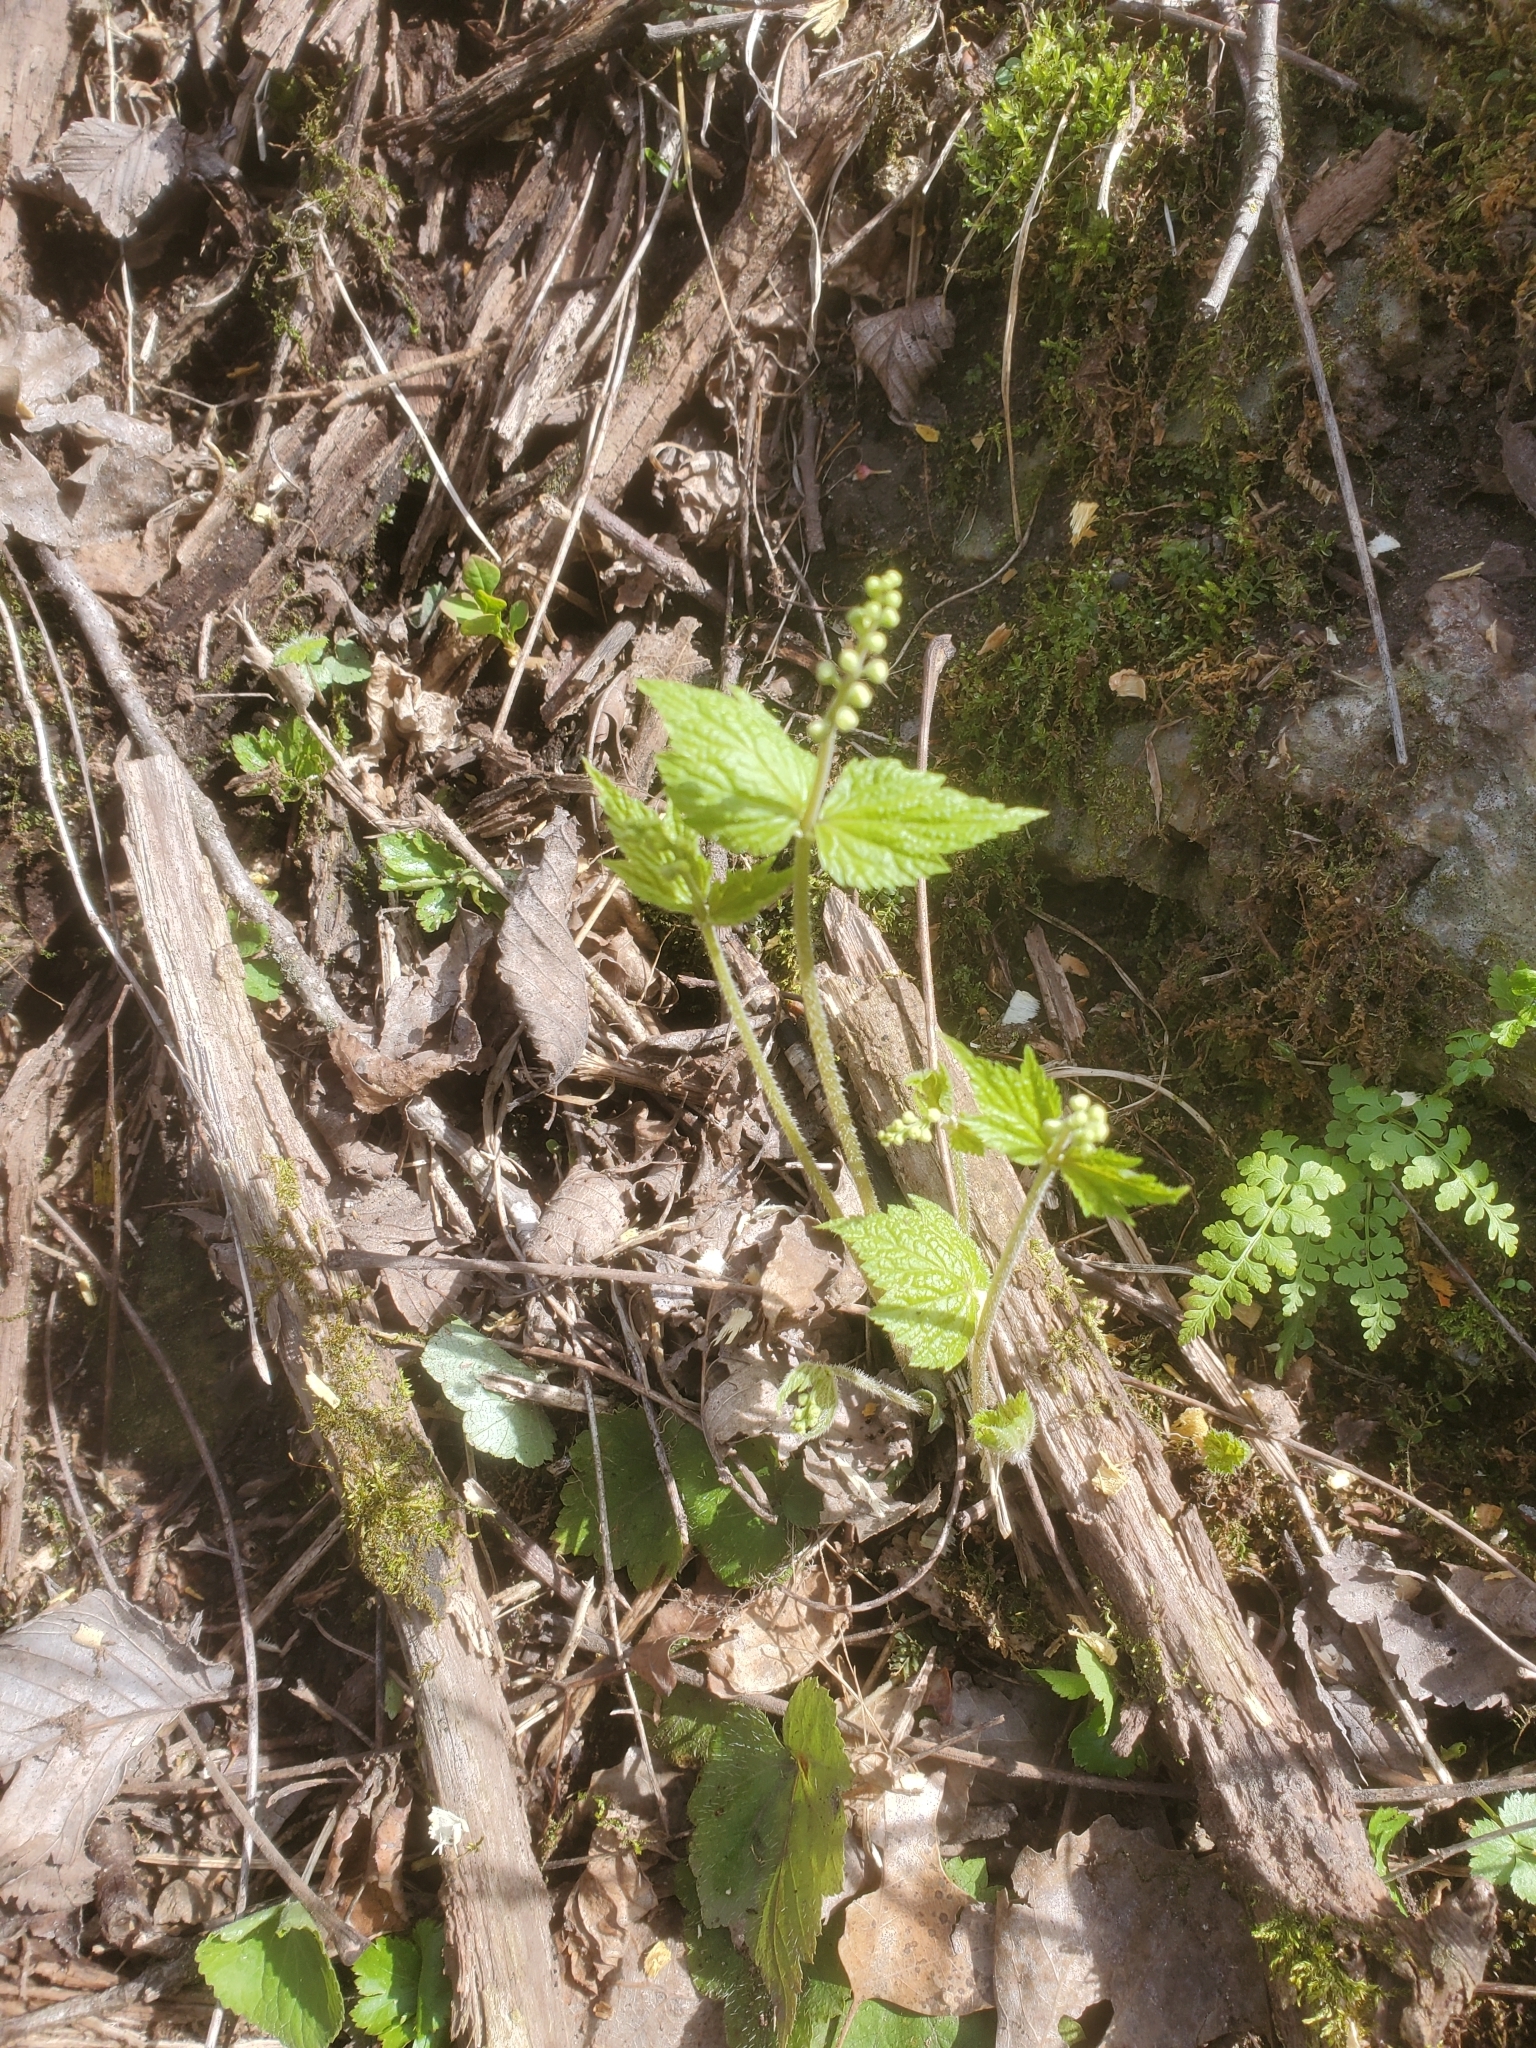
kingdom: Plantae
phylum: Tracheophyta
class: Magnoliopsida
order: Saxifragales
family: Saxifragaceae
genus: Mitella
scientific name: Mitella diphylla
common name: Coolwort
